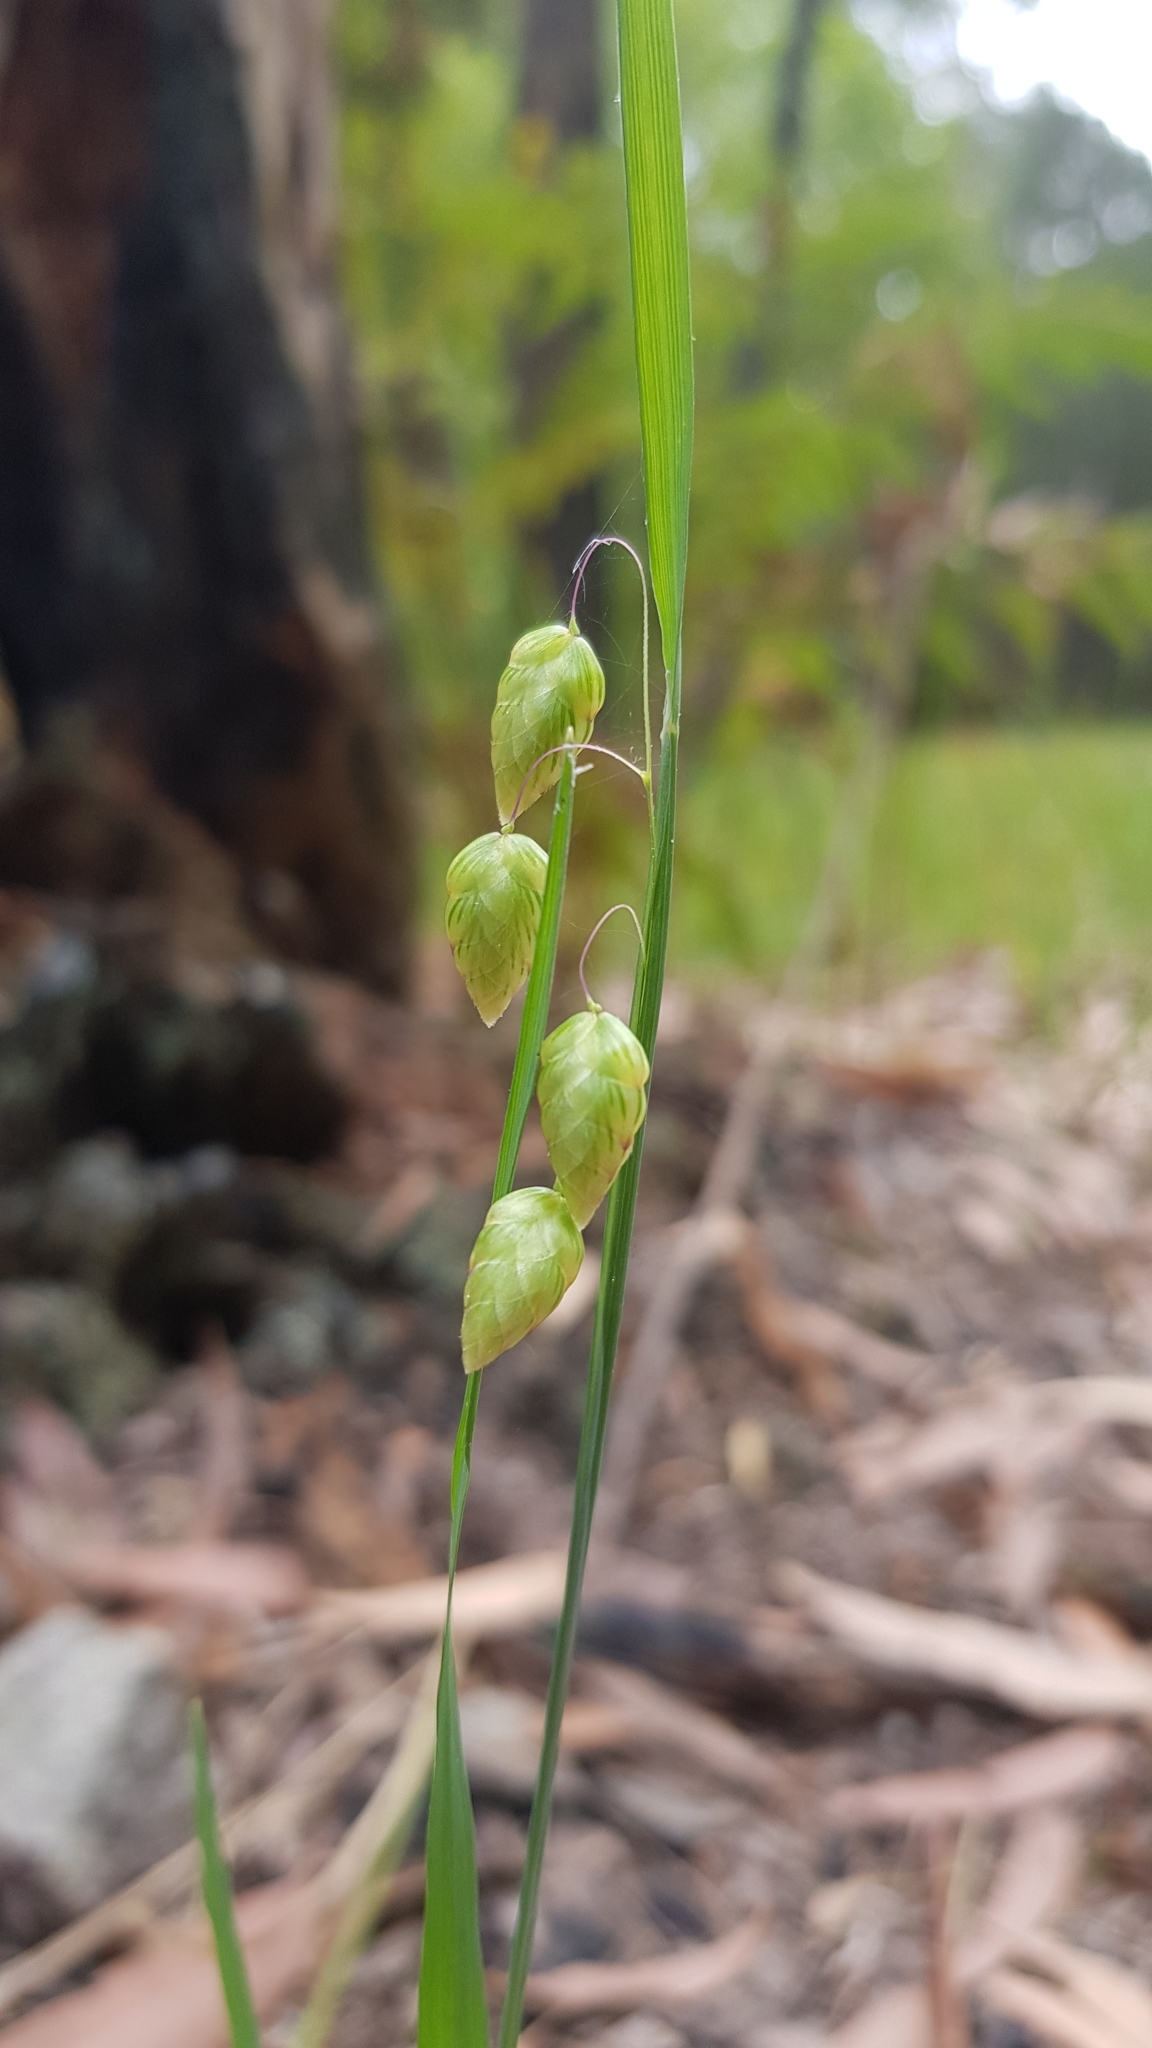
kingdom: Plantae
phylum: Tracheophyta
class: Liliopsida
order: Poales
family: Poaceae
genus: Briza
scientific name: Briza maxima
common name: Big quakinggrass
